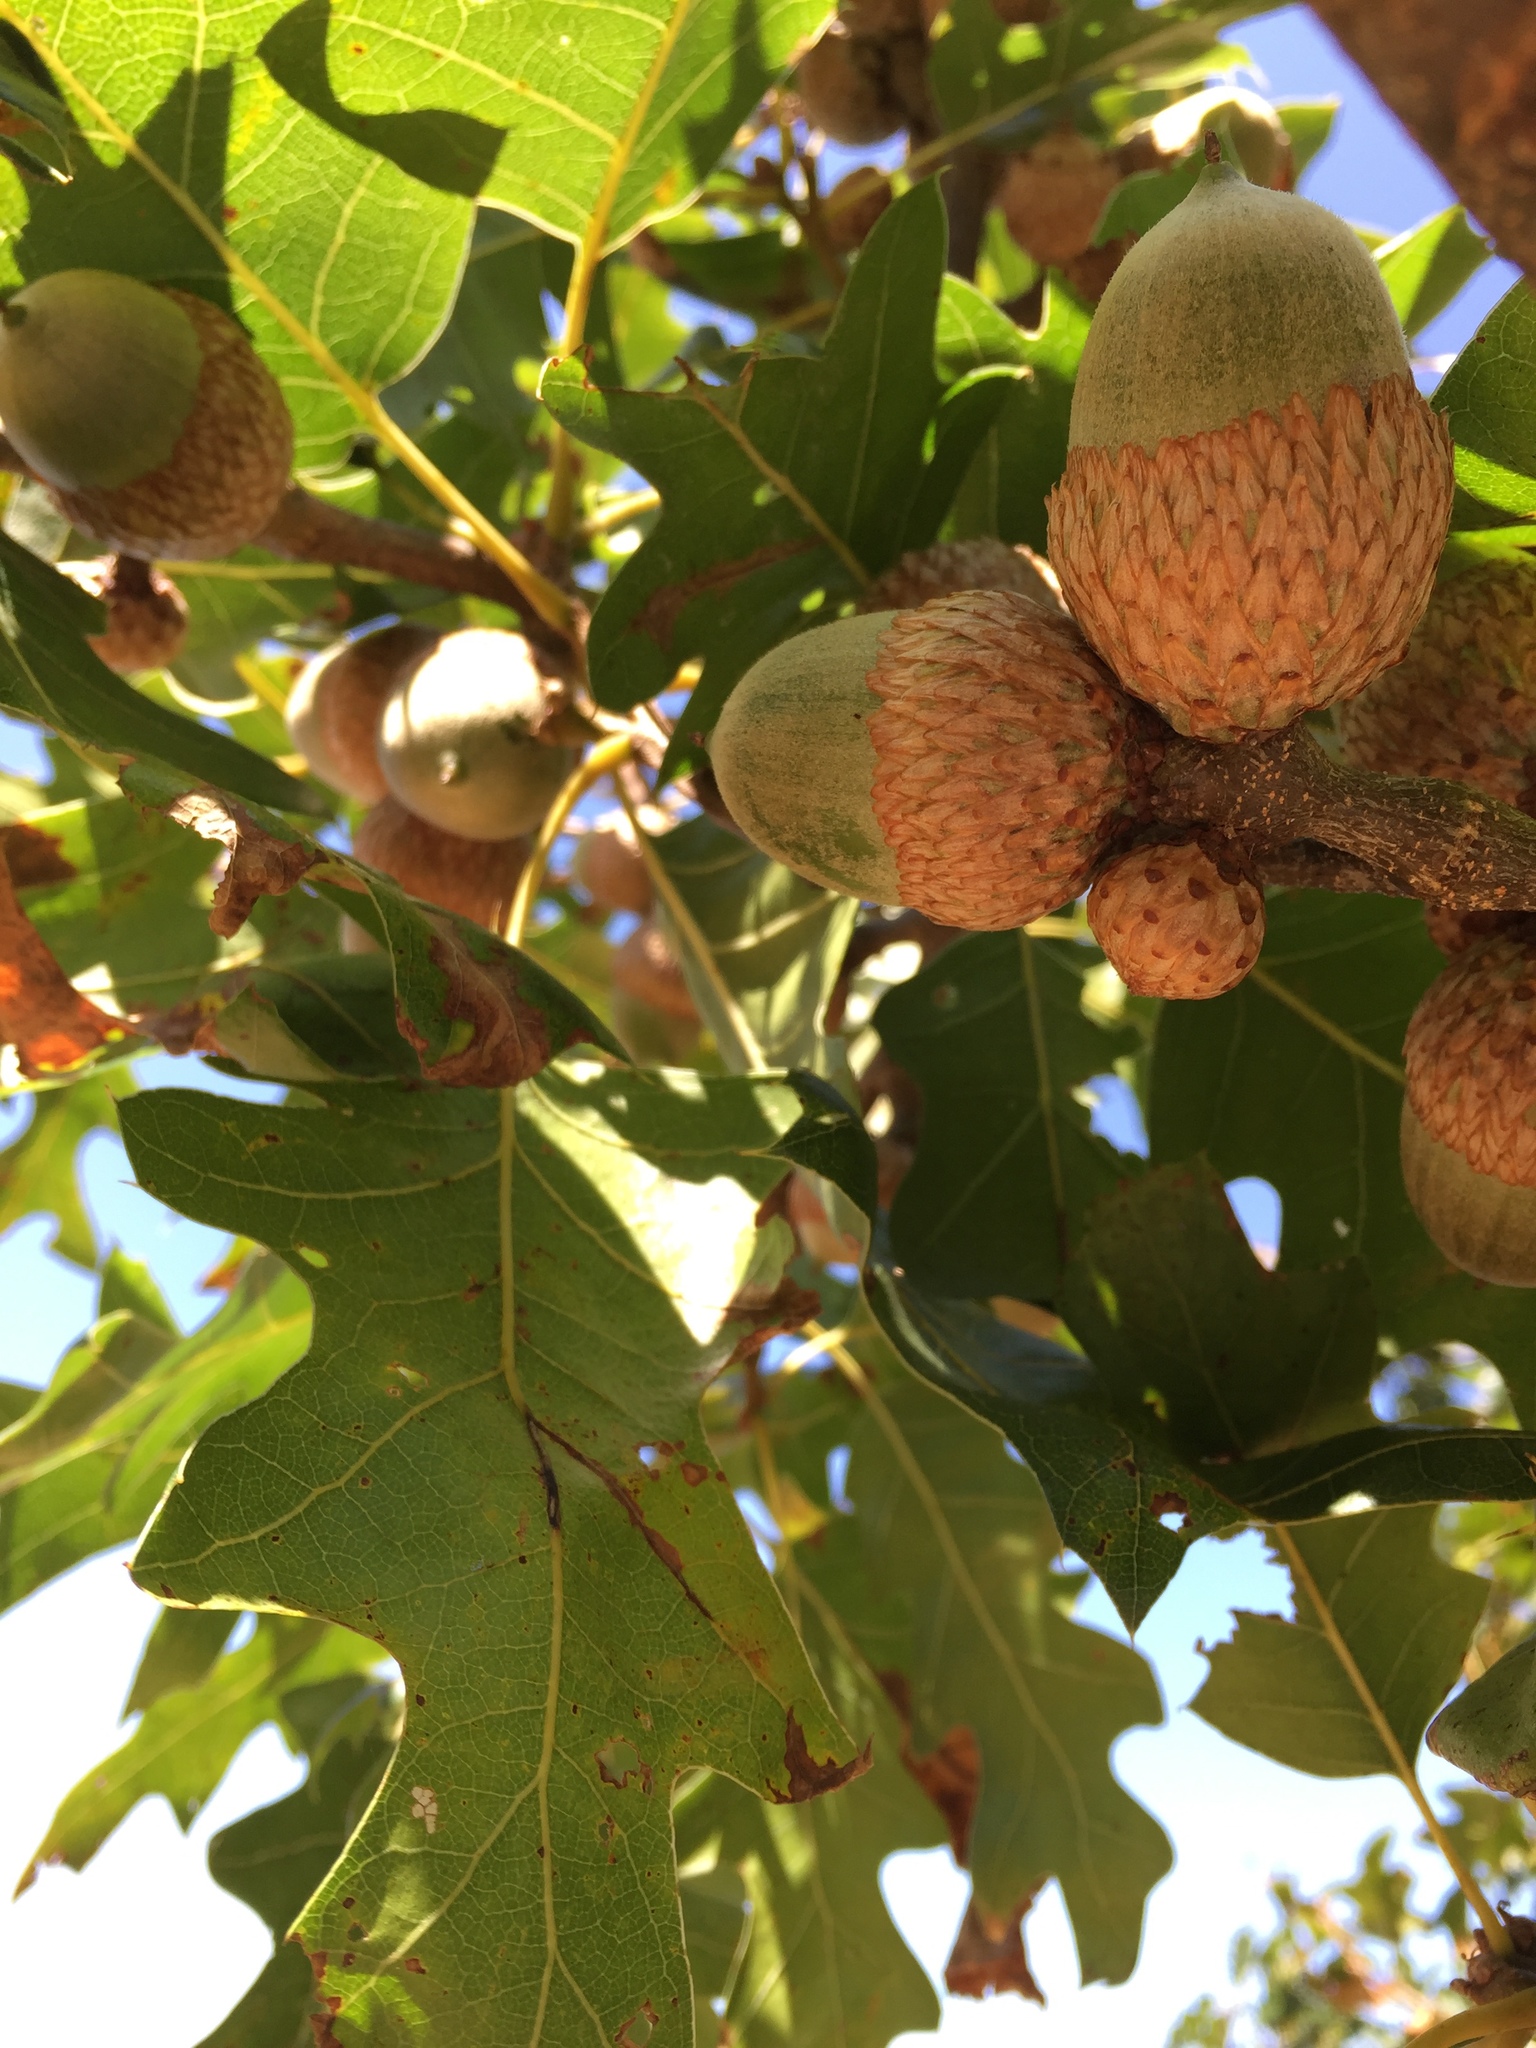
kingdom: Plantae
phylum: Tracheophyta
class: Magnoliopsida
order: Fagales
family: Fagaceae
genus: Quercus
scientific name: Quercus kelloggii
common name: California black oak
